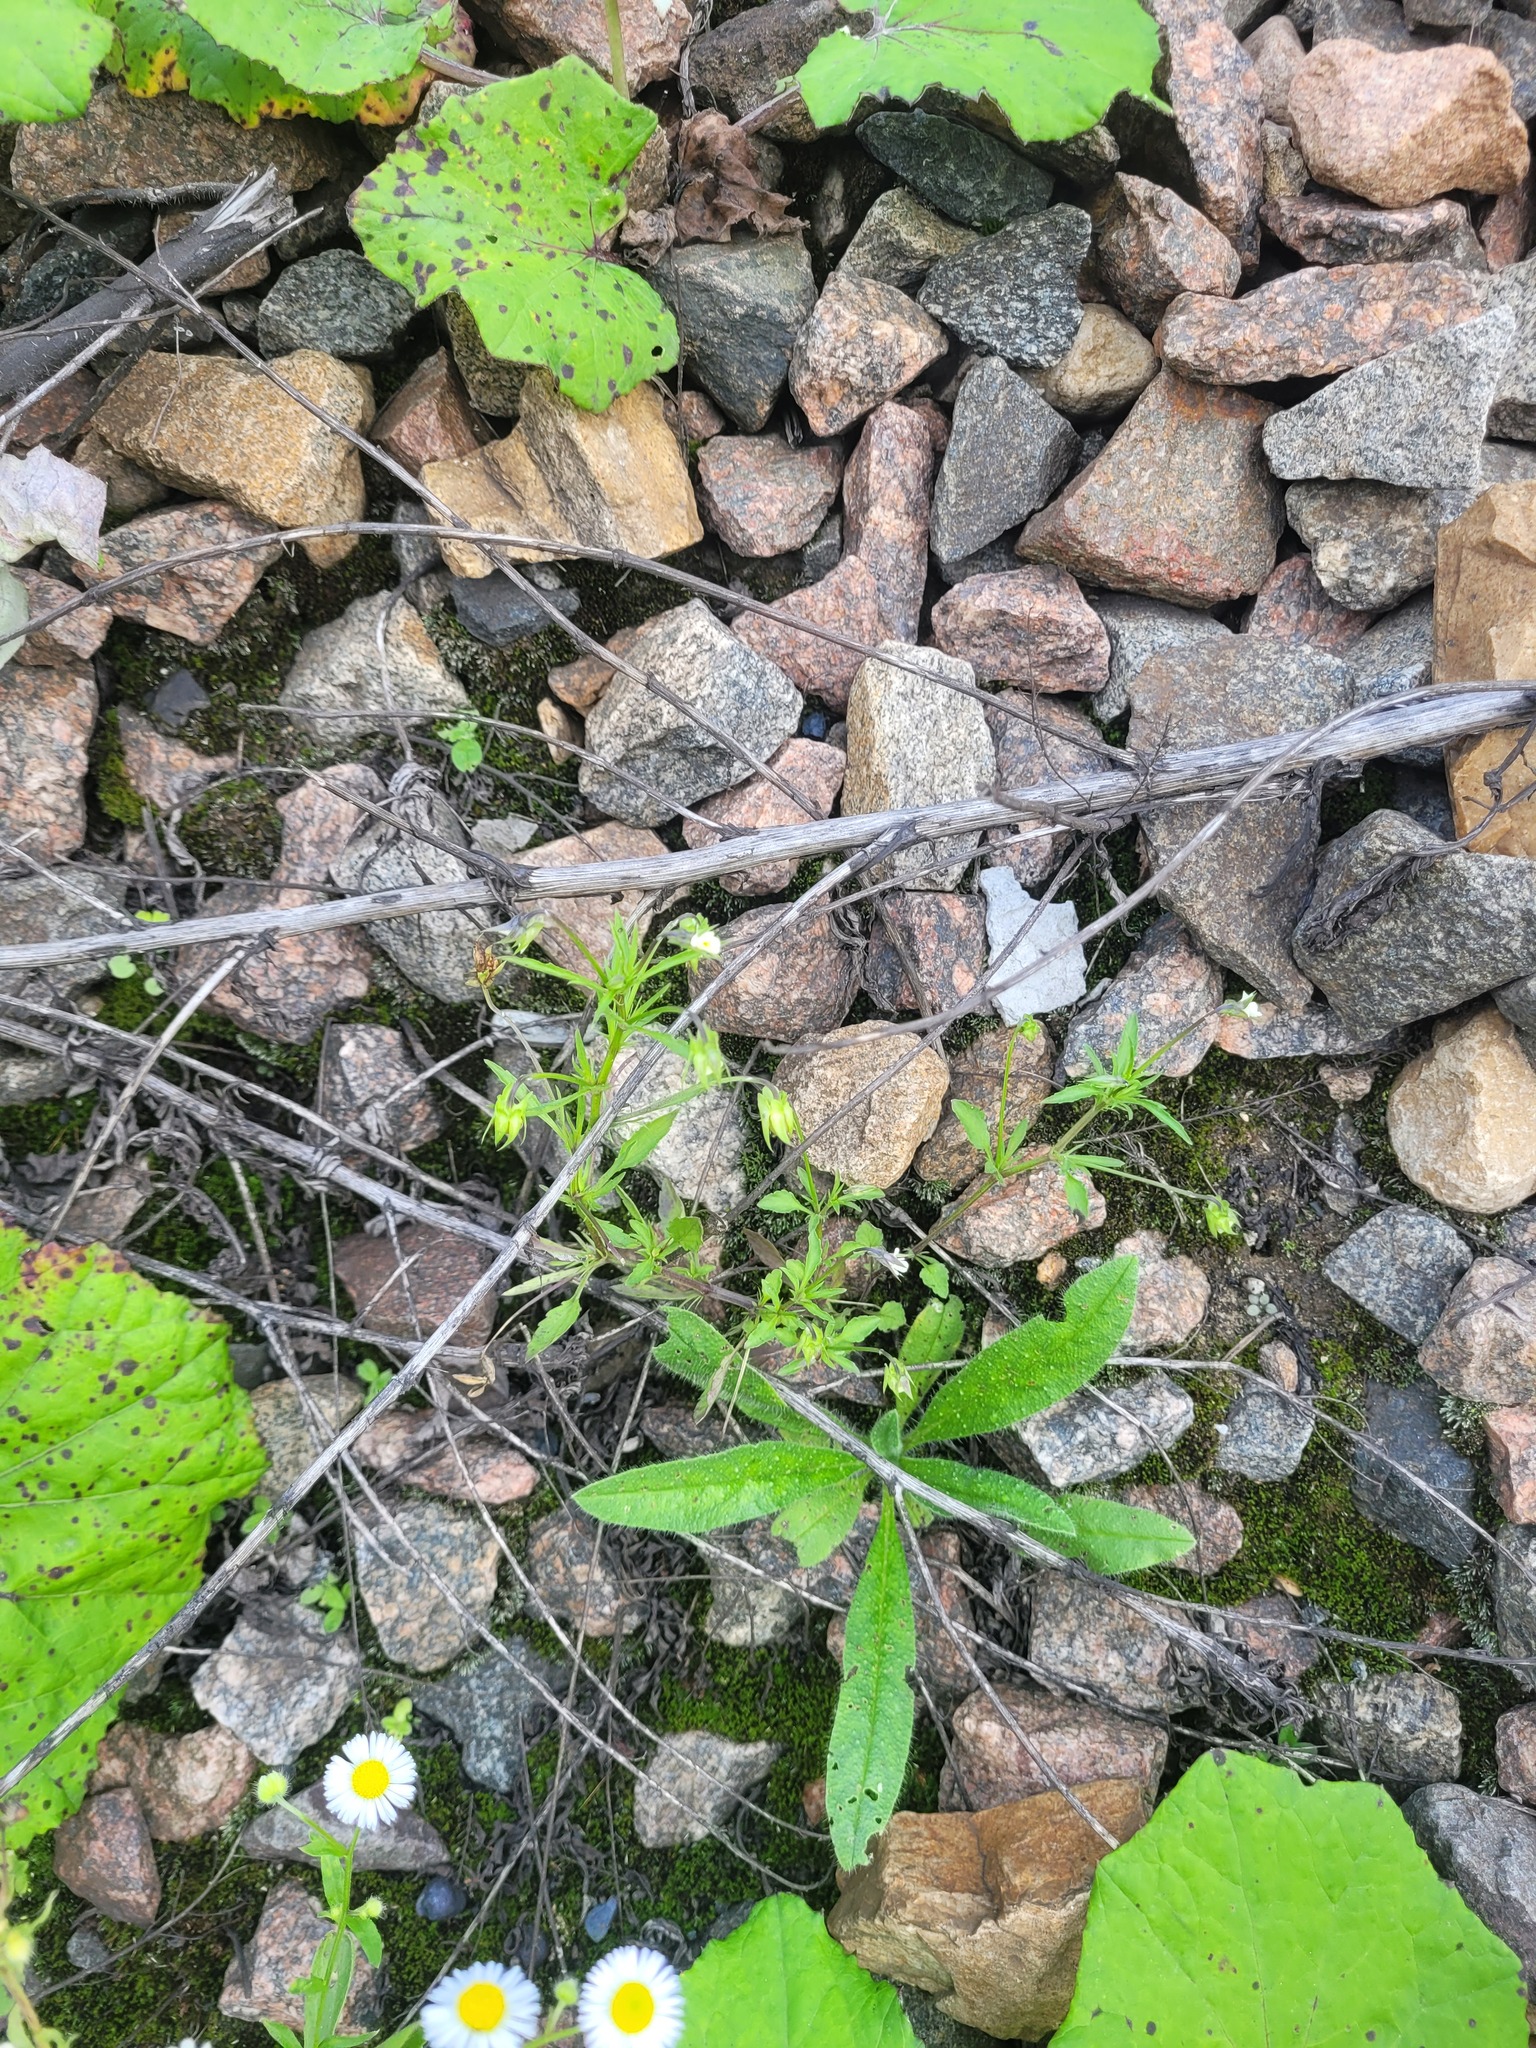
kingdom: Plantae
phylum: Tracheophyta
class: Magnoliopsida
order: Malpighiales
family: Violaceae
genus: Viola
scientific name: Viola arvensis
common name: Field pansy
